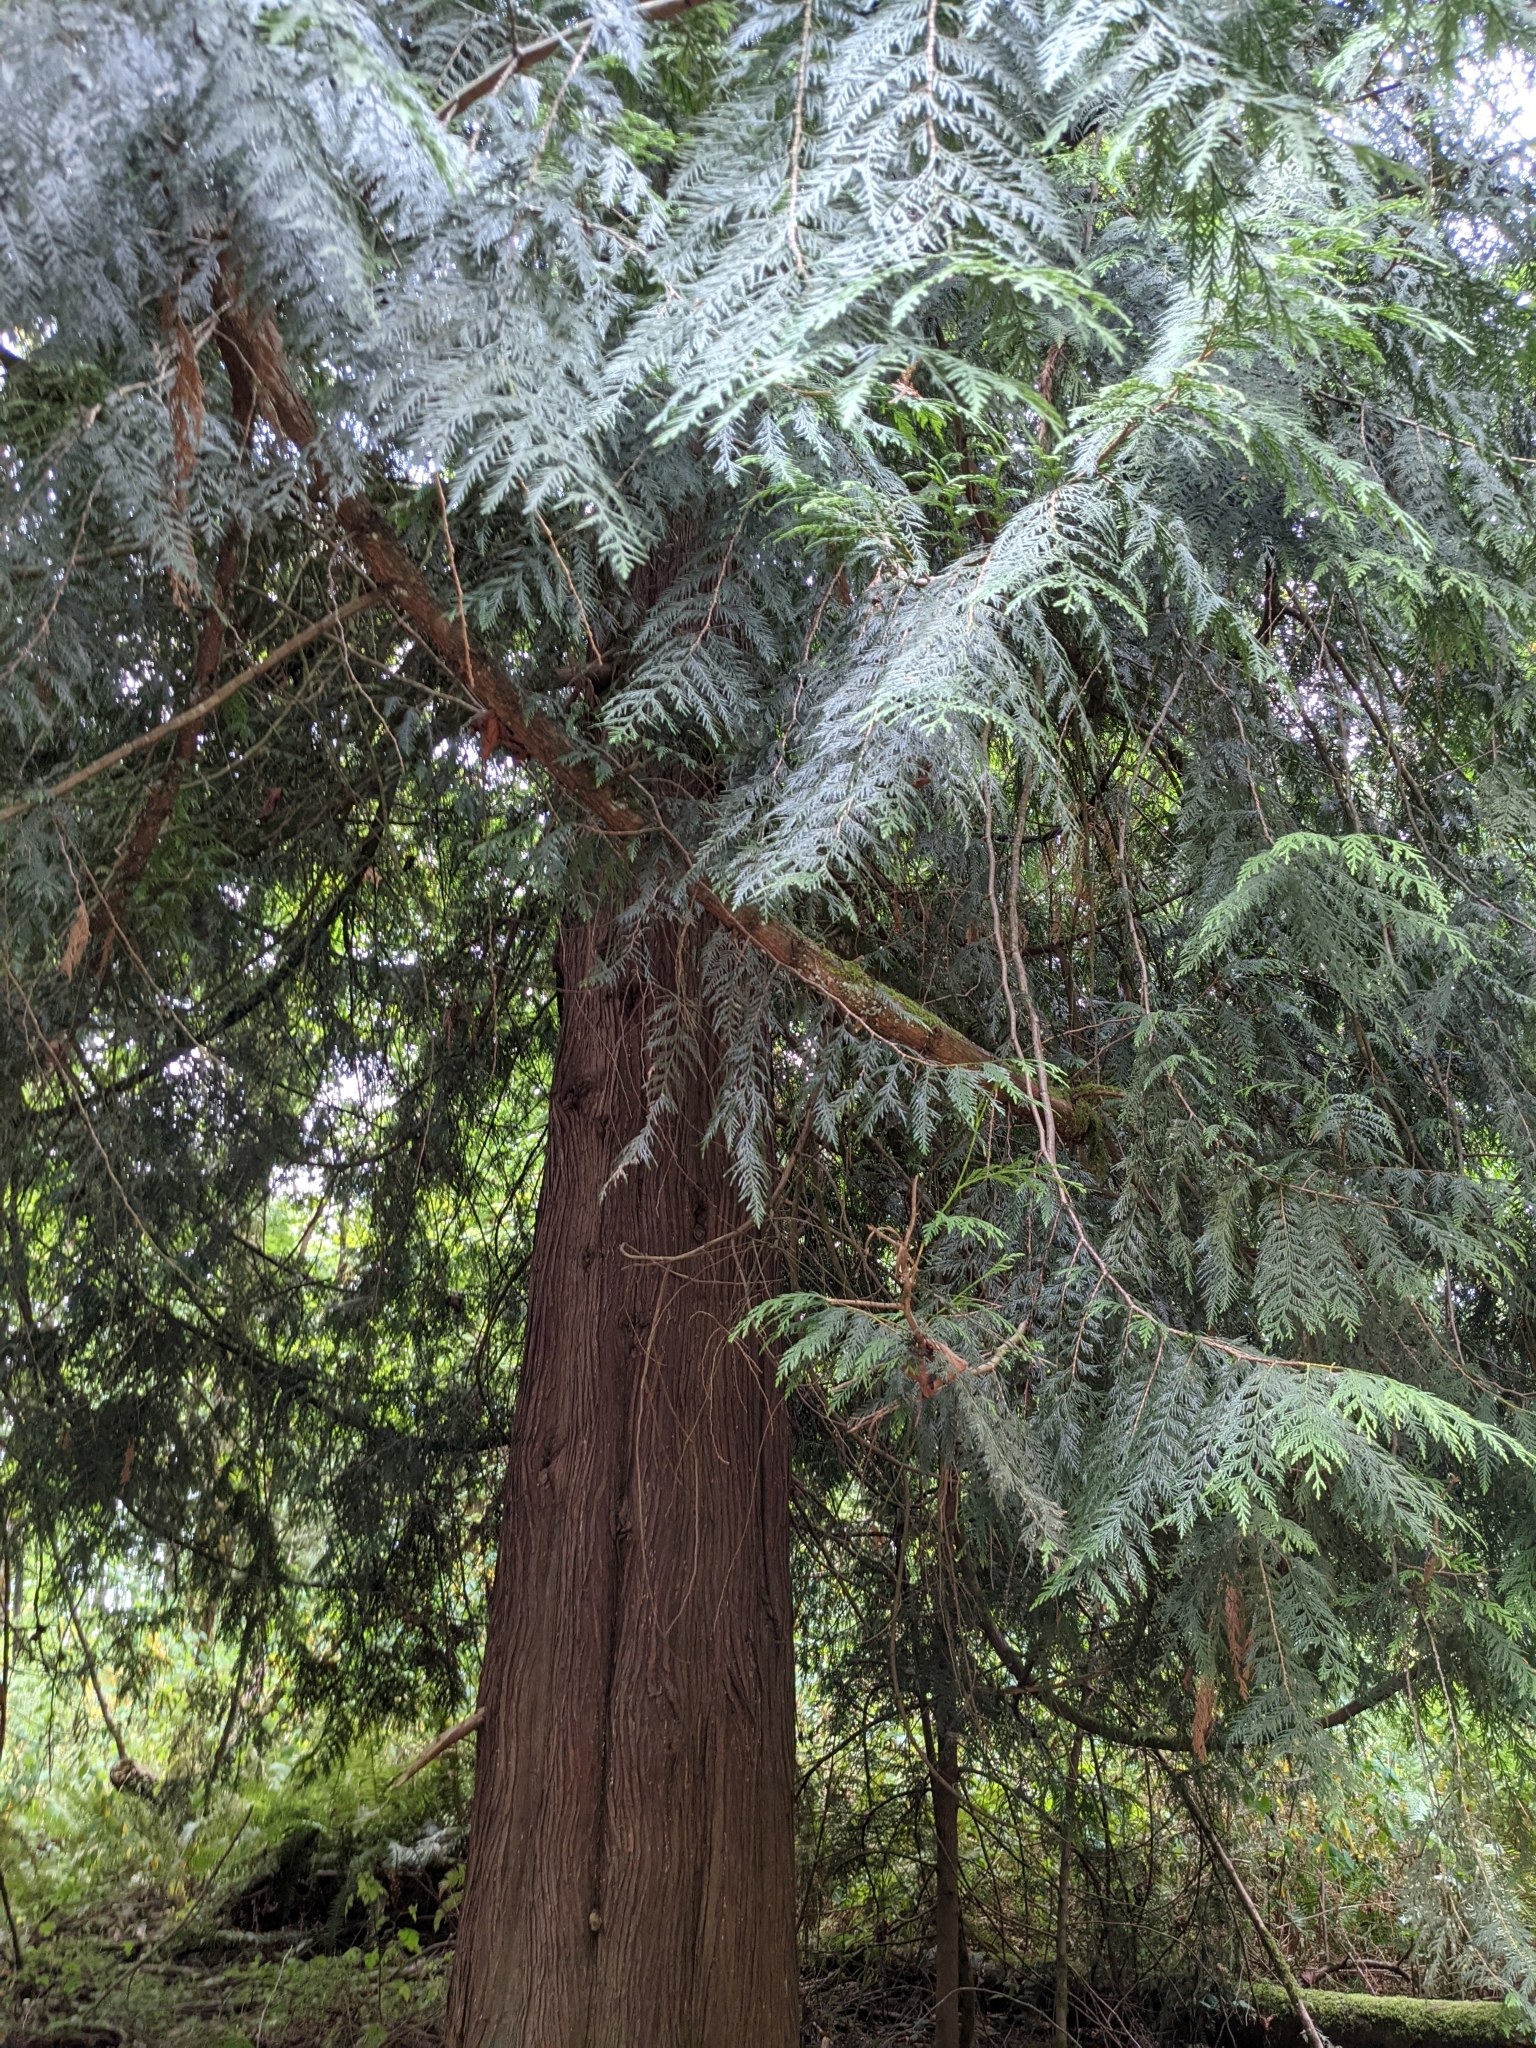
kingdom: Plantae
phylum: Tracheophyta
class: Pinopsida
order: Pinales
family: Cupressaceae
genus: Thuja
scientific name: Thuja plicata
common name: Western red-cedar
